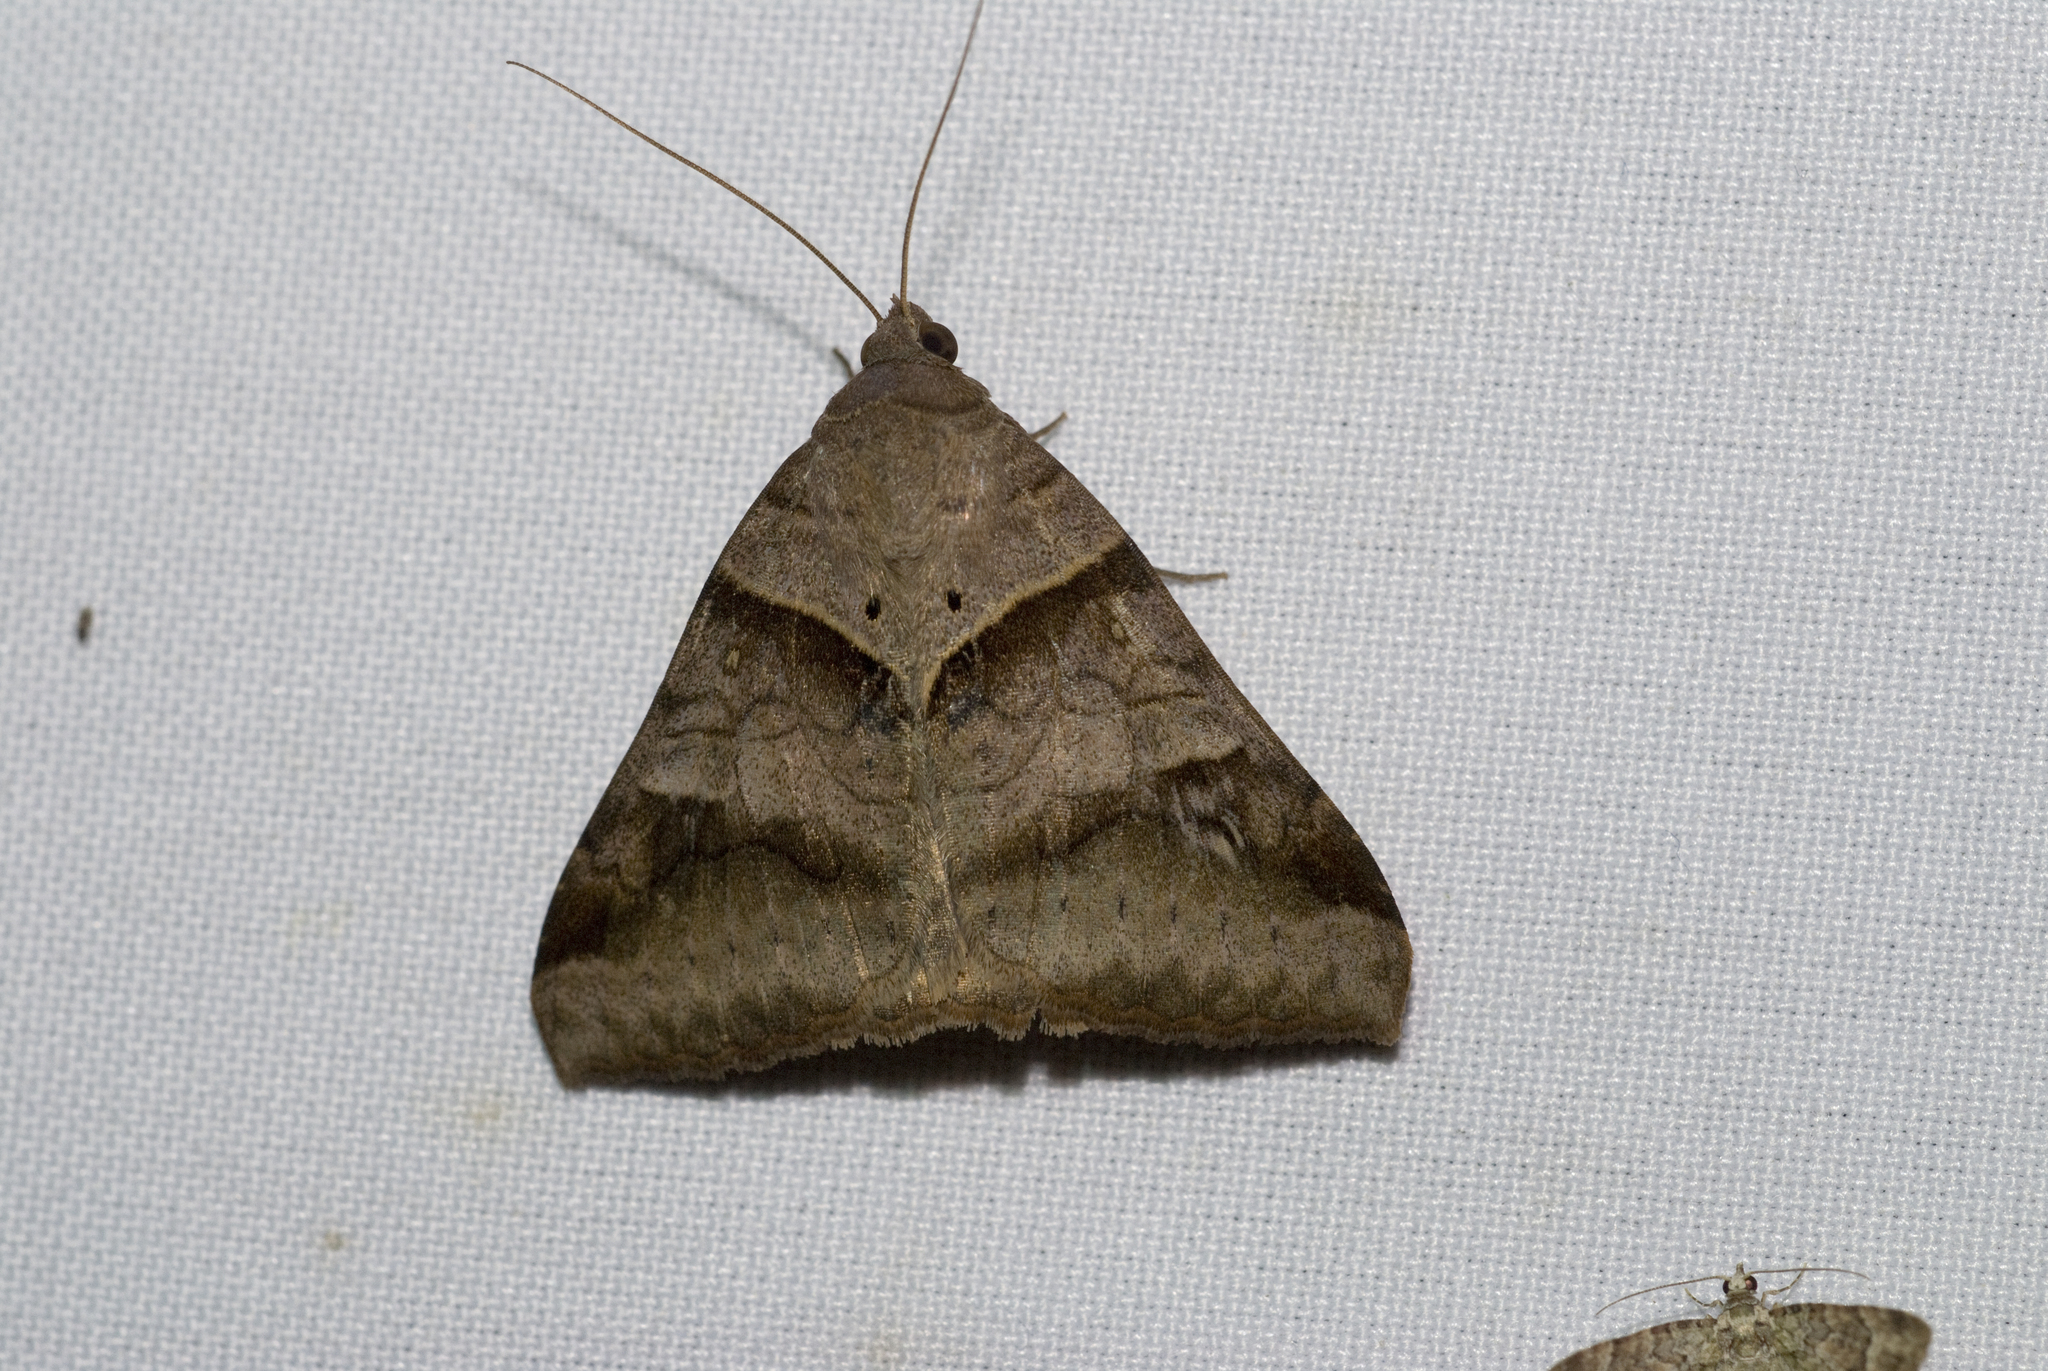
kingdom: Animalia
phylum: Arthropoda
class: Insecta
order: Lepidoptera
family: Erebidae
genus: Mocis
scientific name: Mocis undata
